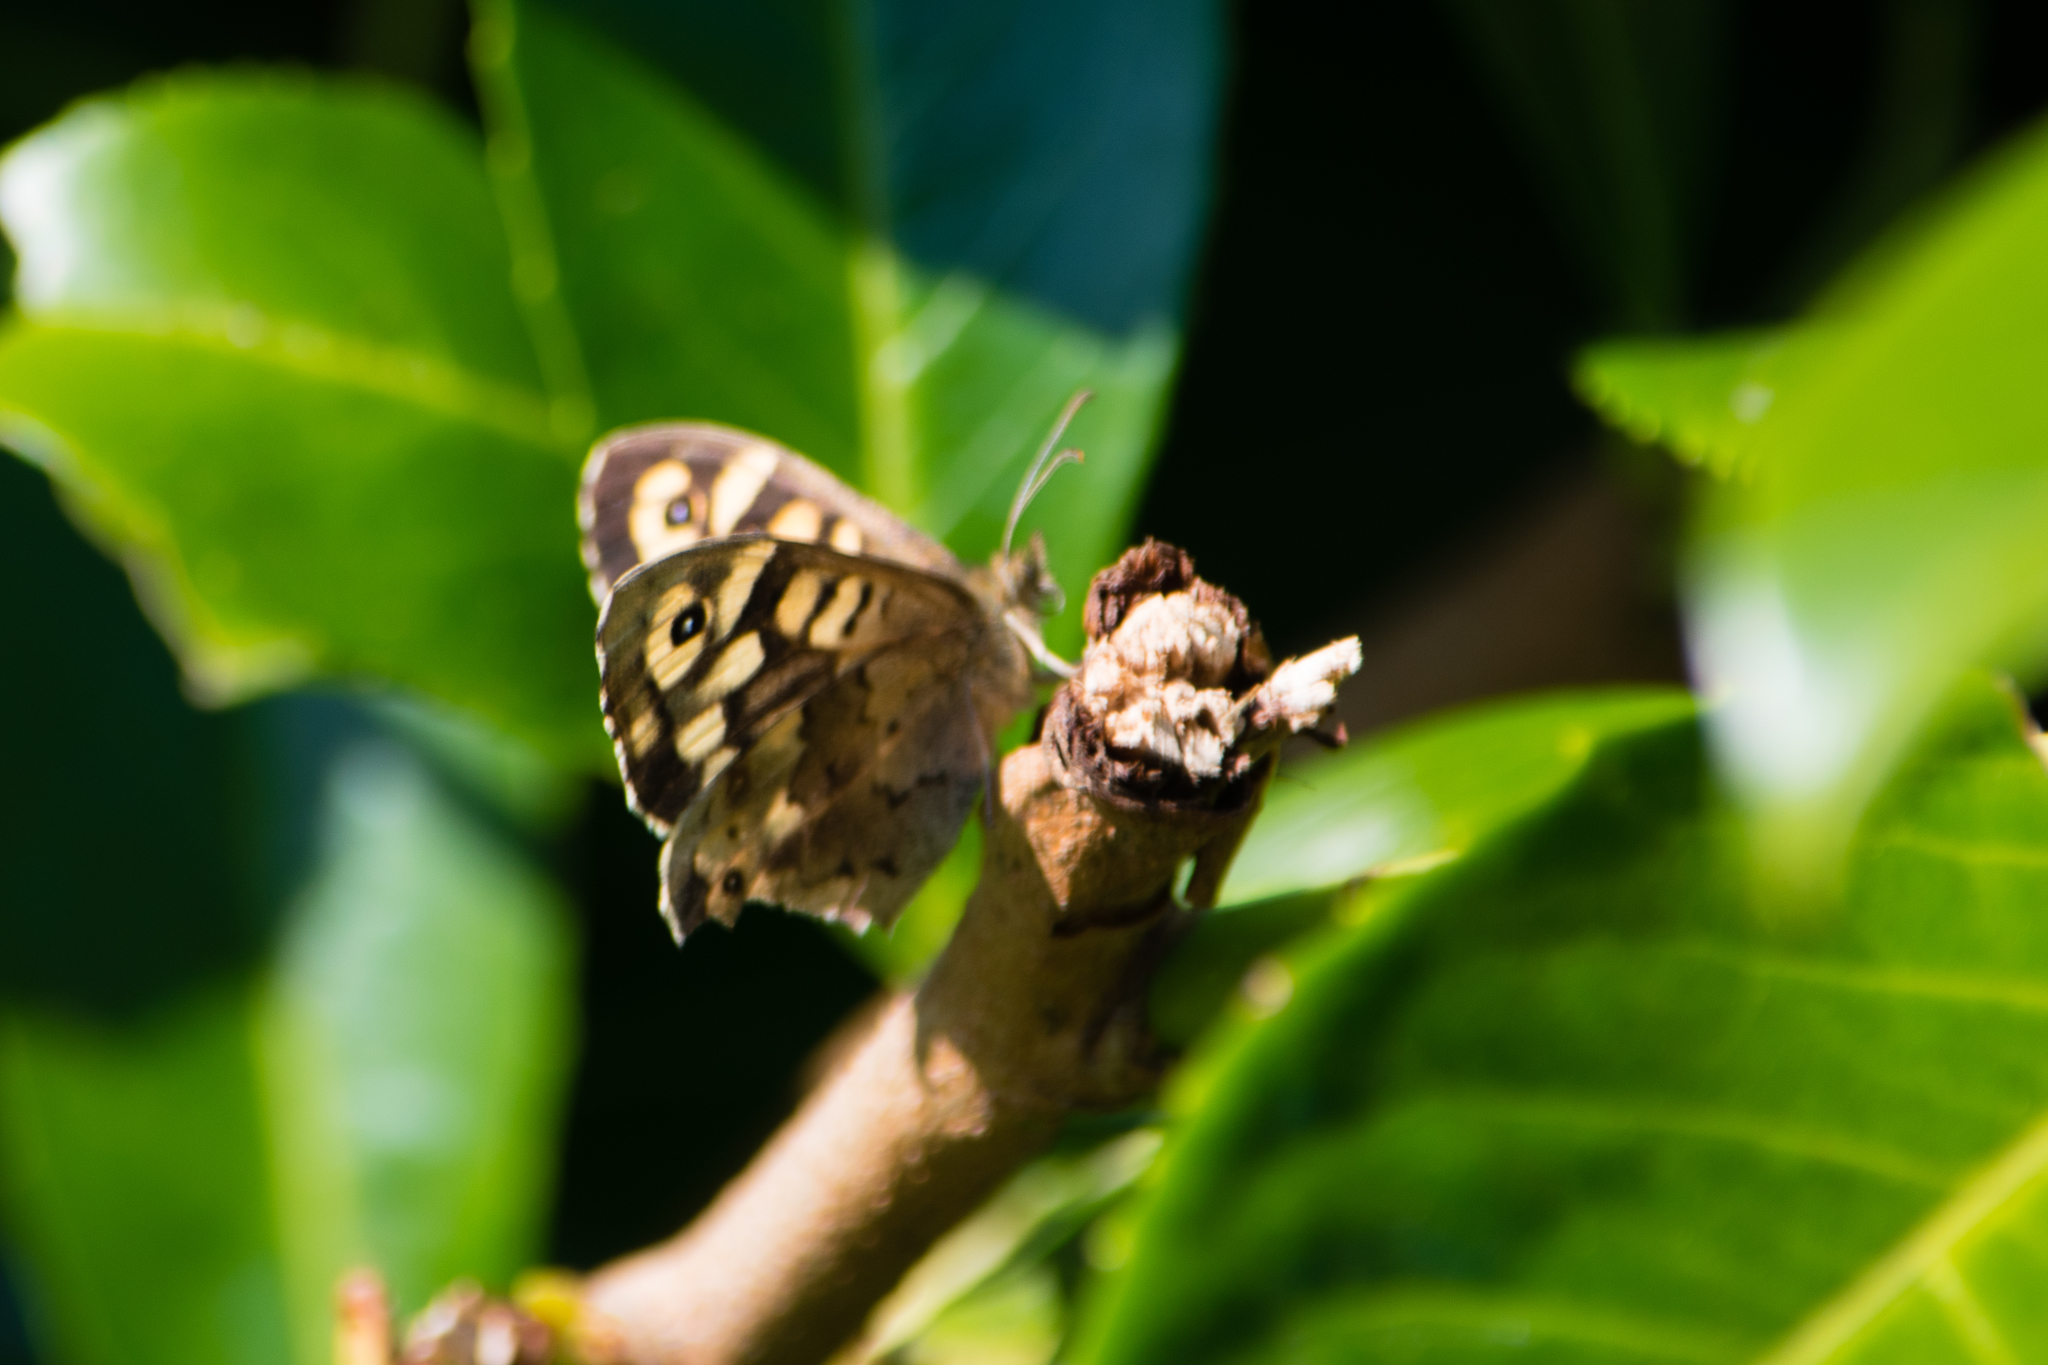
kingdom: Animalia
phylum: Arthropoda
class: Insecta
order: Lepidoptera
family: Nymphalidae
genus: Pararge
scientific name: Pararge aegeria
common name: Speckled wood
